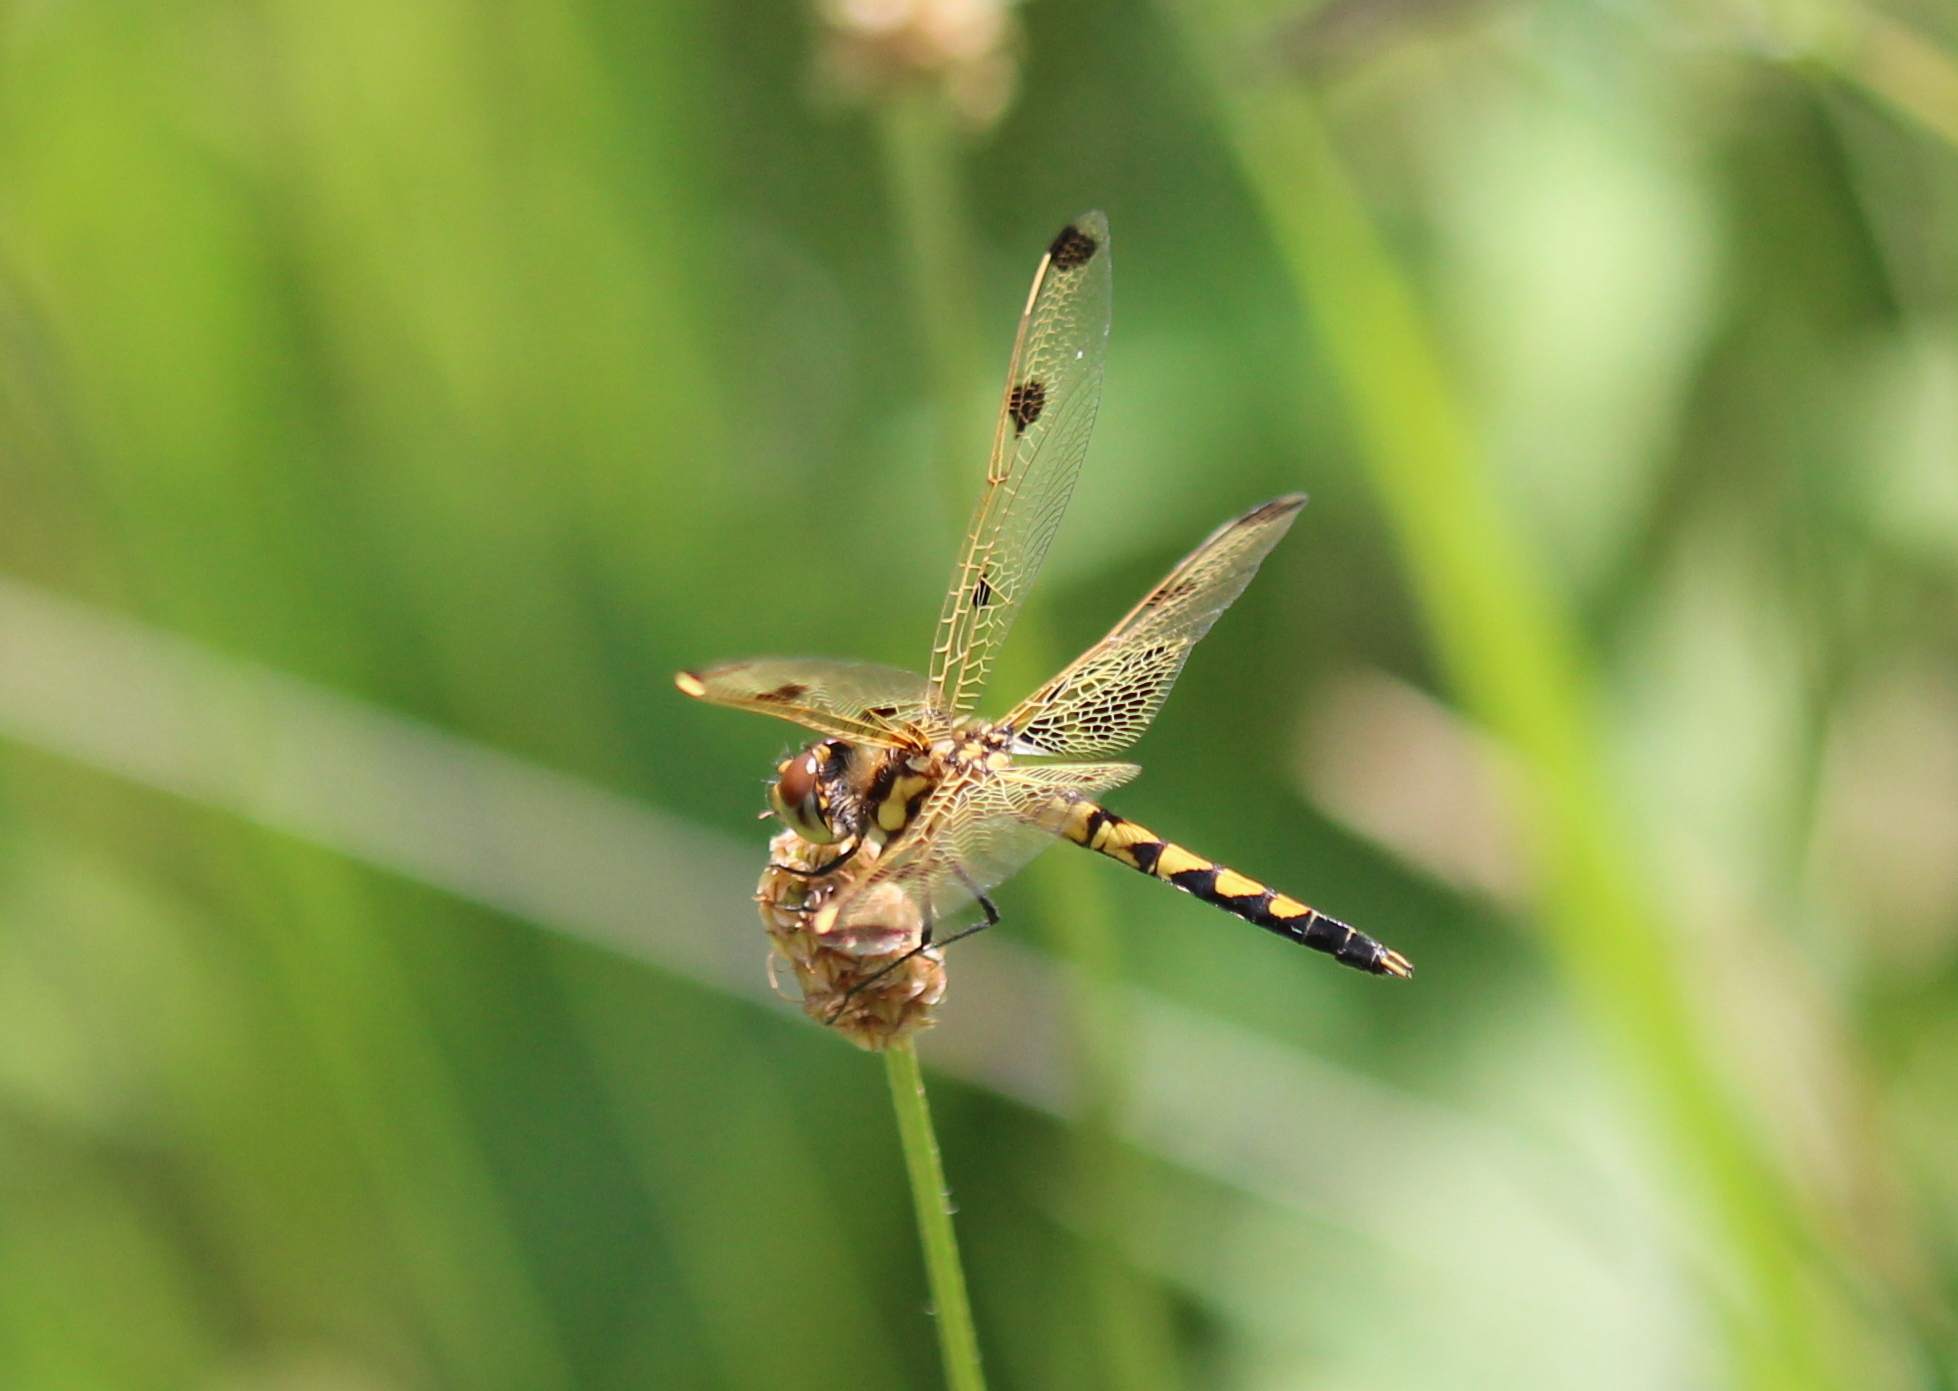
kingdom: Animalia
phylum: Arthropoda
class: Insecta
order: Odonata
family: Libellulidae
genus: Celithemis
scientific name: Celithemis elisa
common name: Calico pennant
